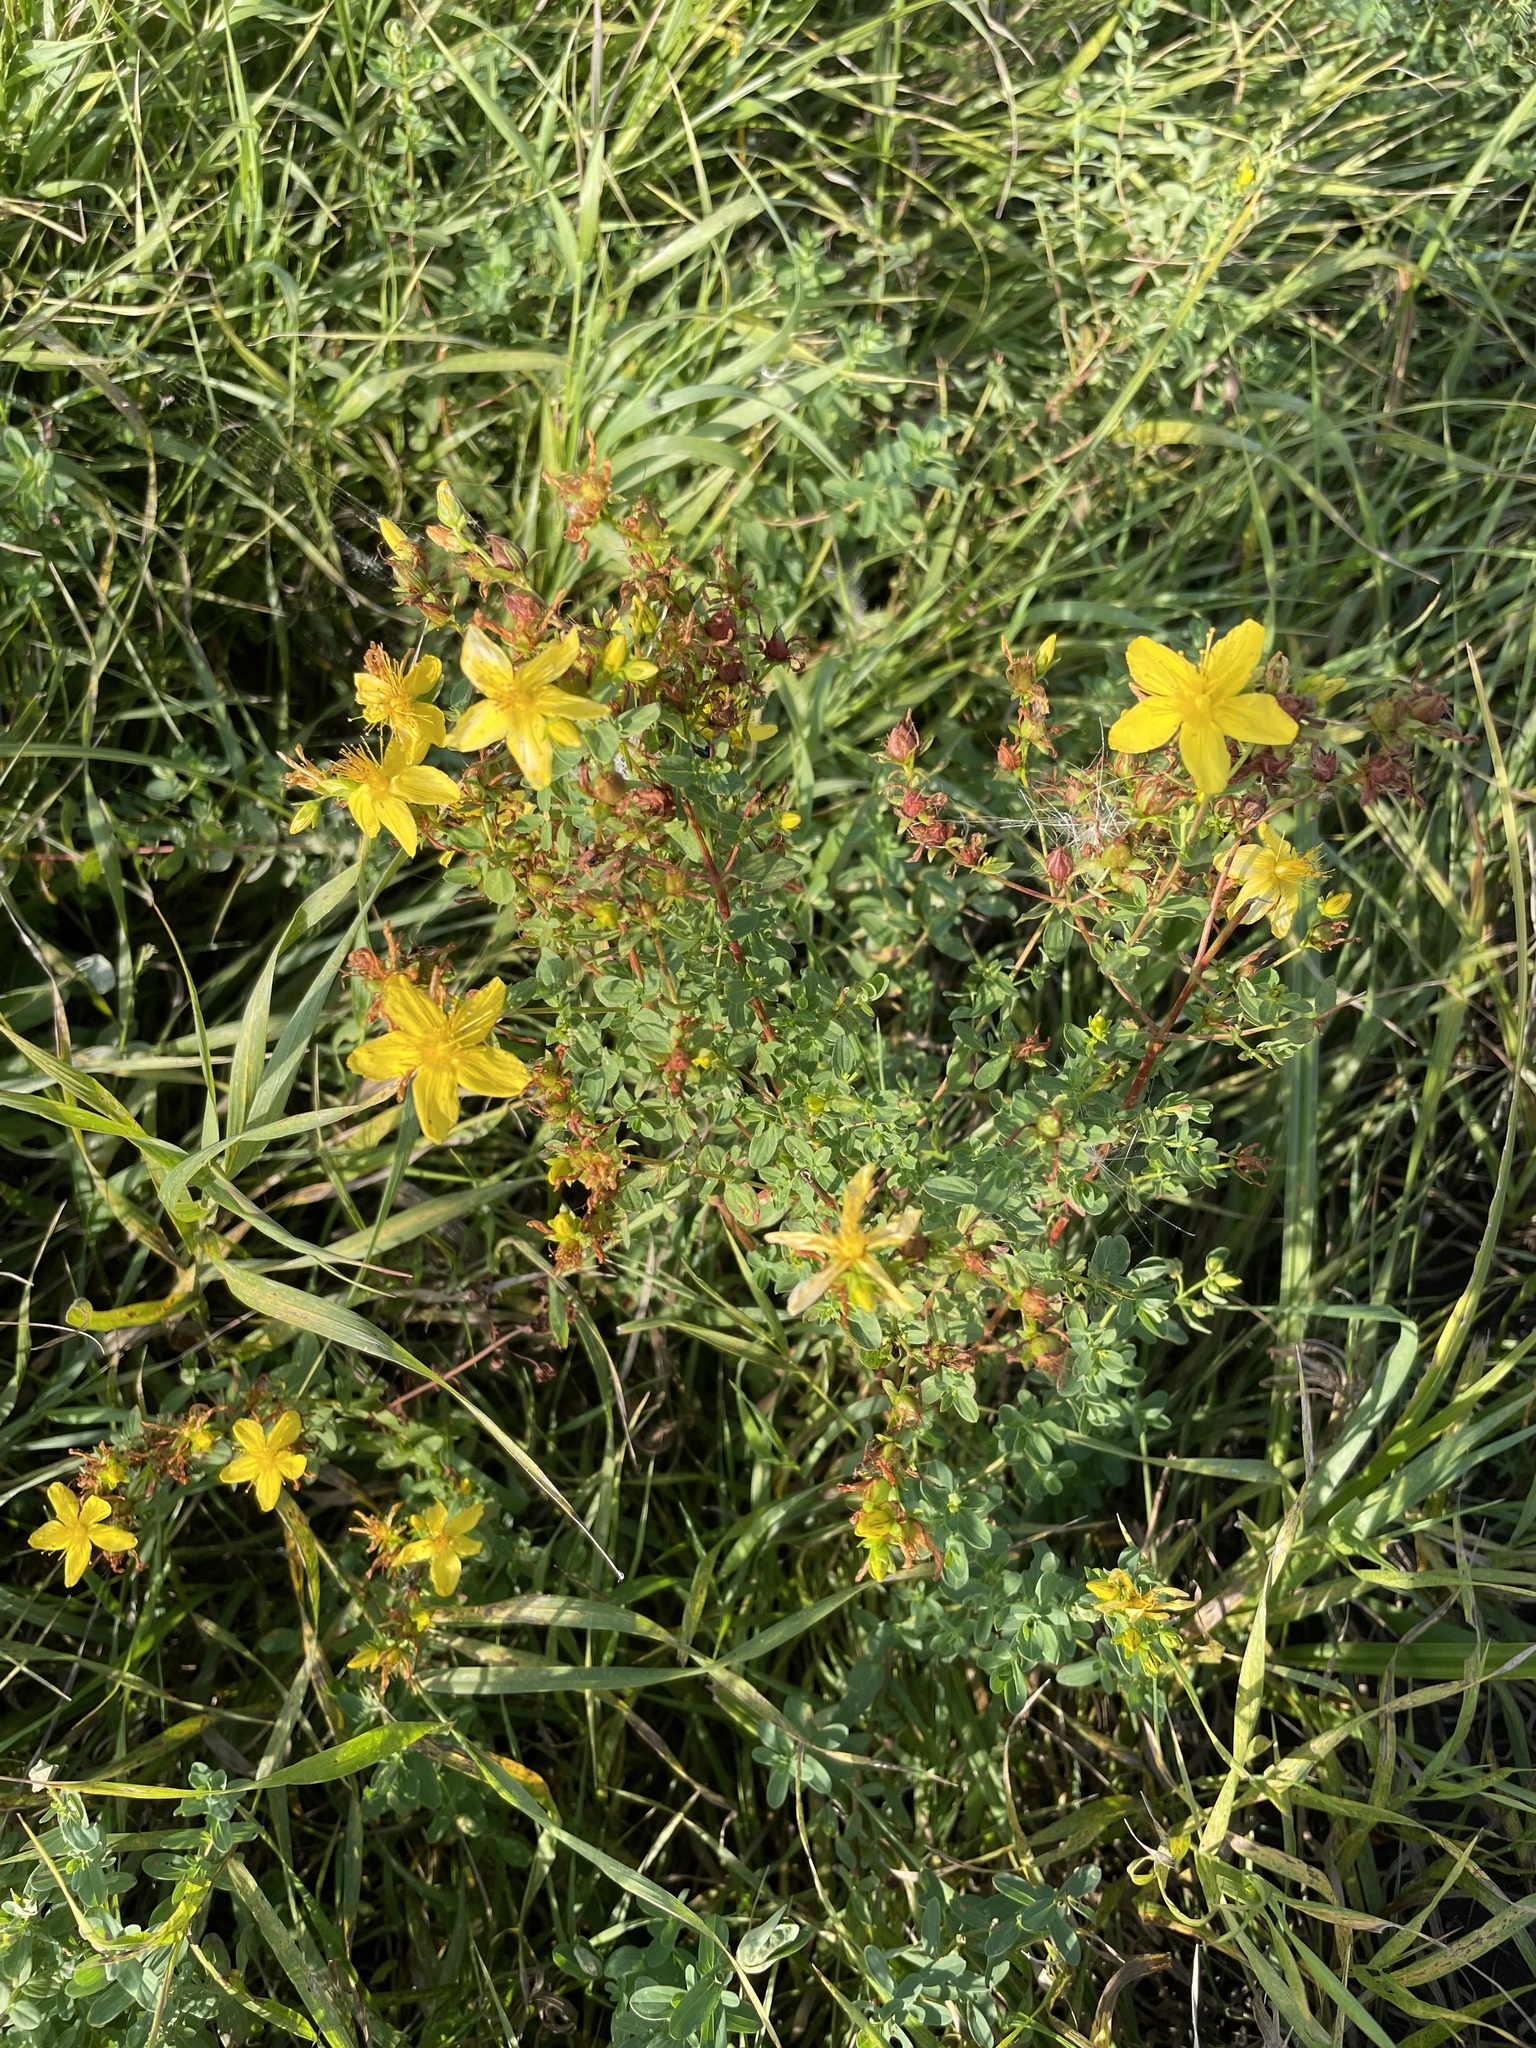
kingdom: Plantae
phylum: Tracheophyta
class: Magnoliopsida
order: Malpighiales
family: Hypericaceae
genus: Hypericum
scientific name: Hypericum perforatum
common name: Common st. johnswort
